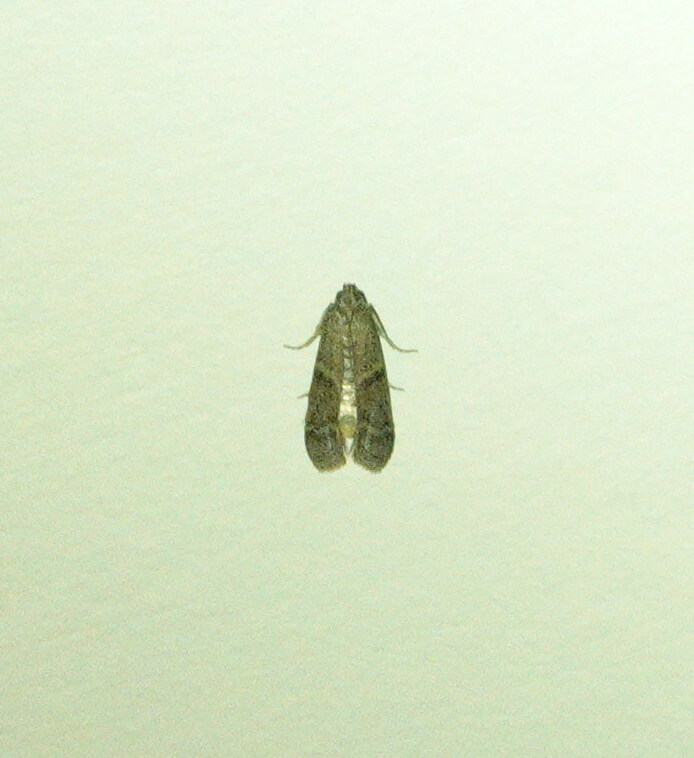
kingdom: Animalia
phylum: Arthropoda
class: Insecta
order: Lepidoptera
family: Pyralidae
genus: Ephestia
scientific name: Ephestia elutella
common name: Cacao moth
